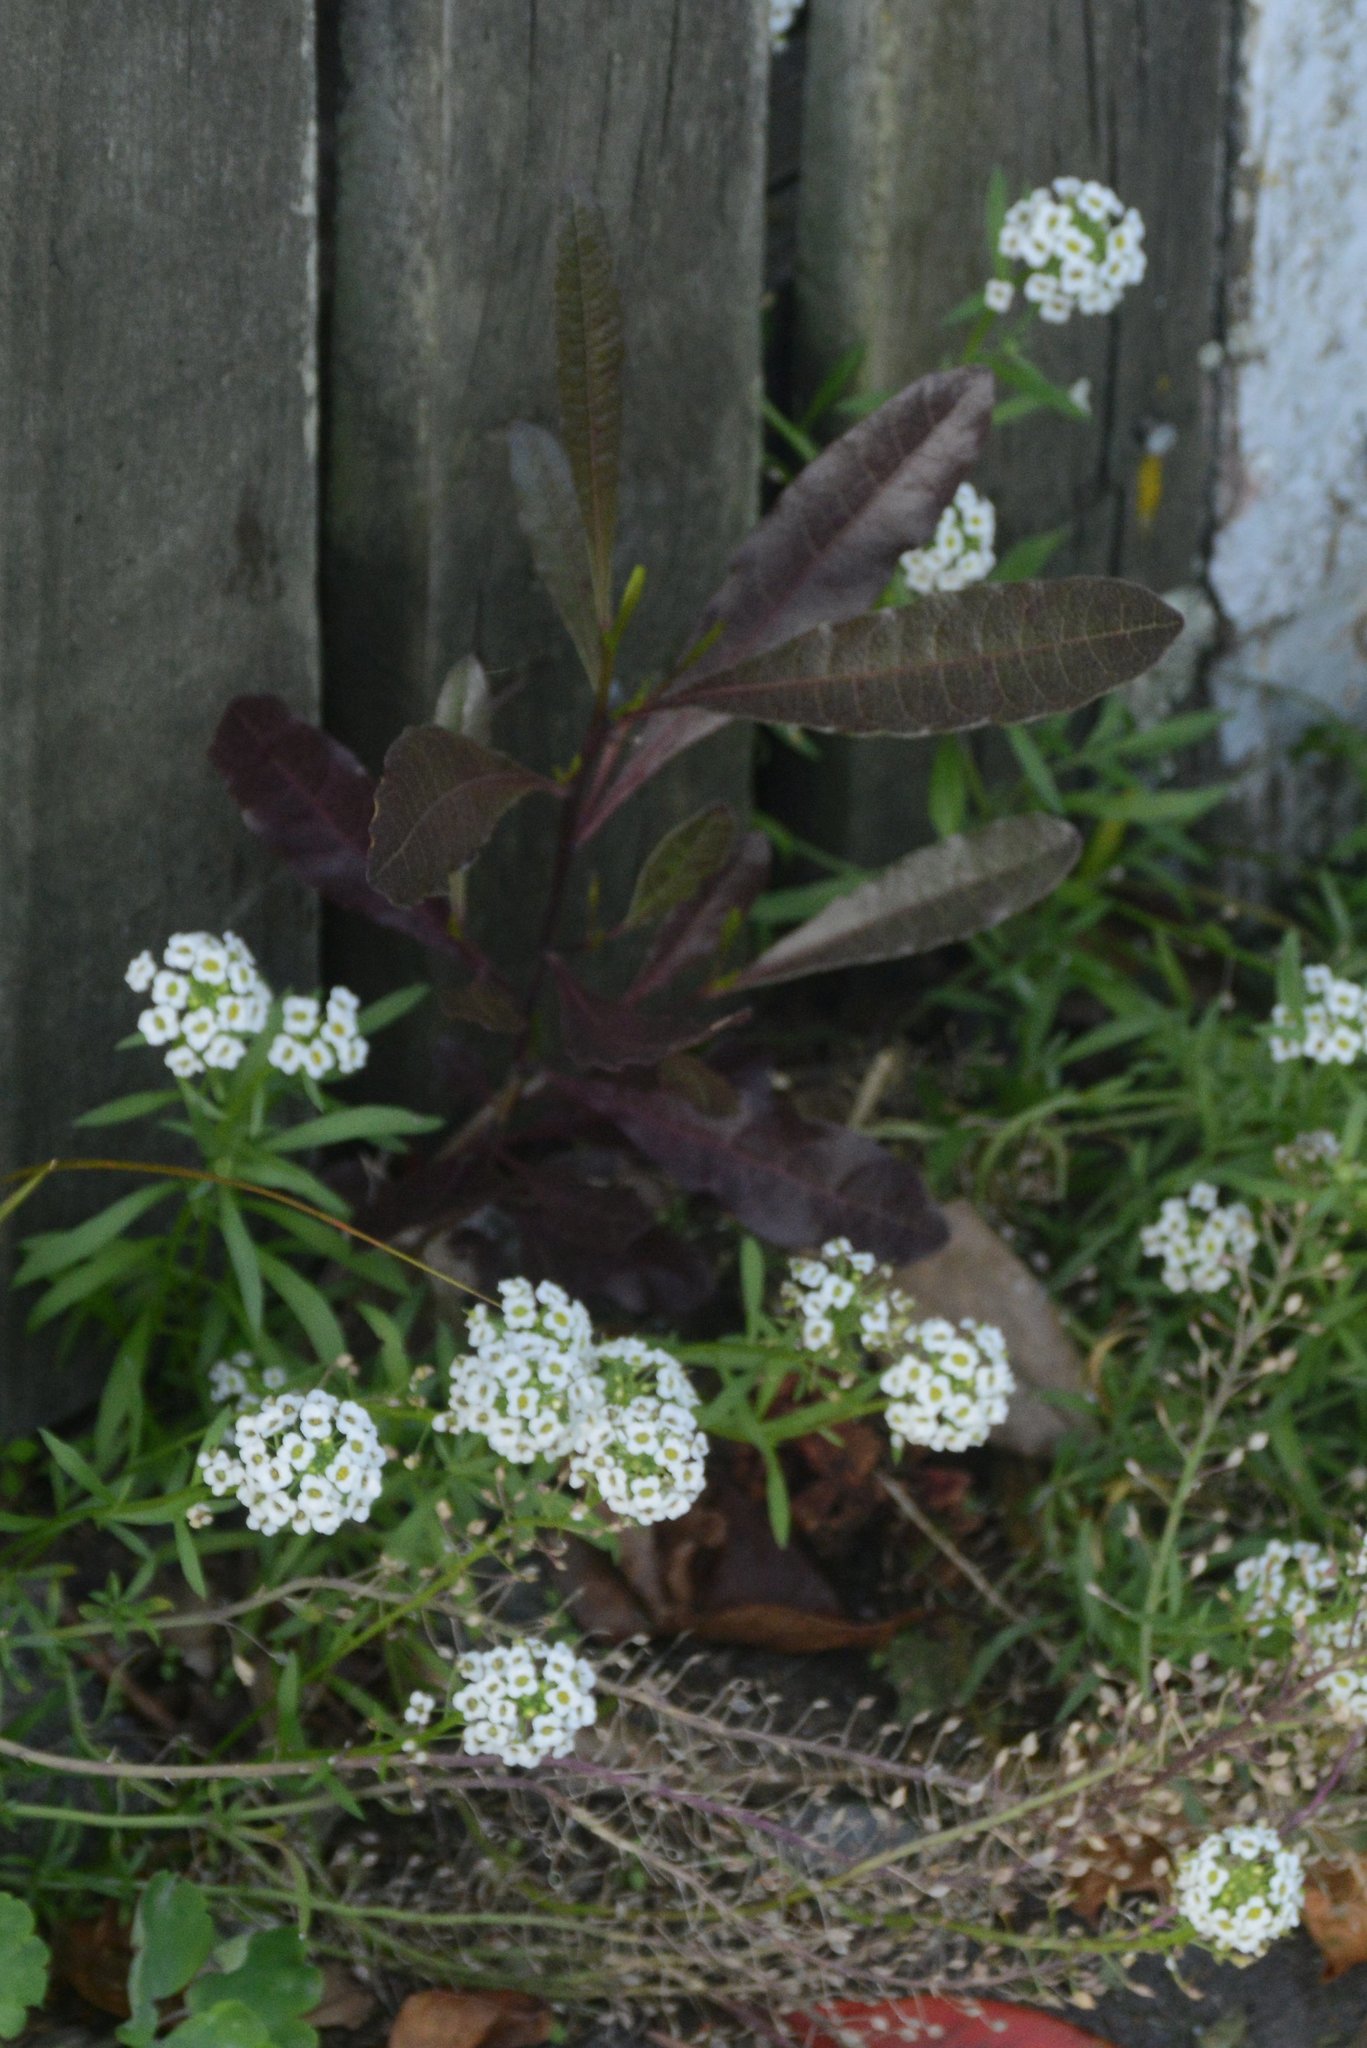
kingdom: Plantae
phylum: Tracheophyta
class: Magnoliopsida
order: Sapindales
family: Sapindaceae
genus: Dodonaea
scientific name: Dodonaea viscosa
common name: Hopbush
